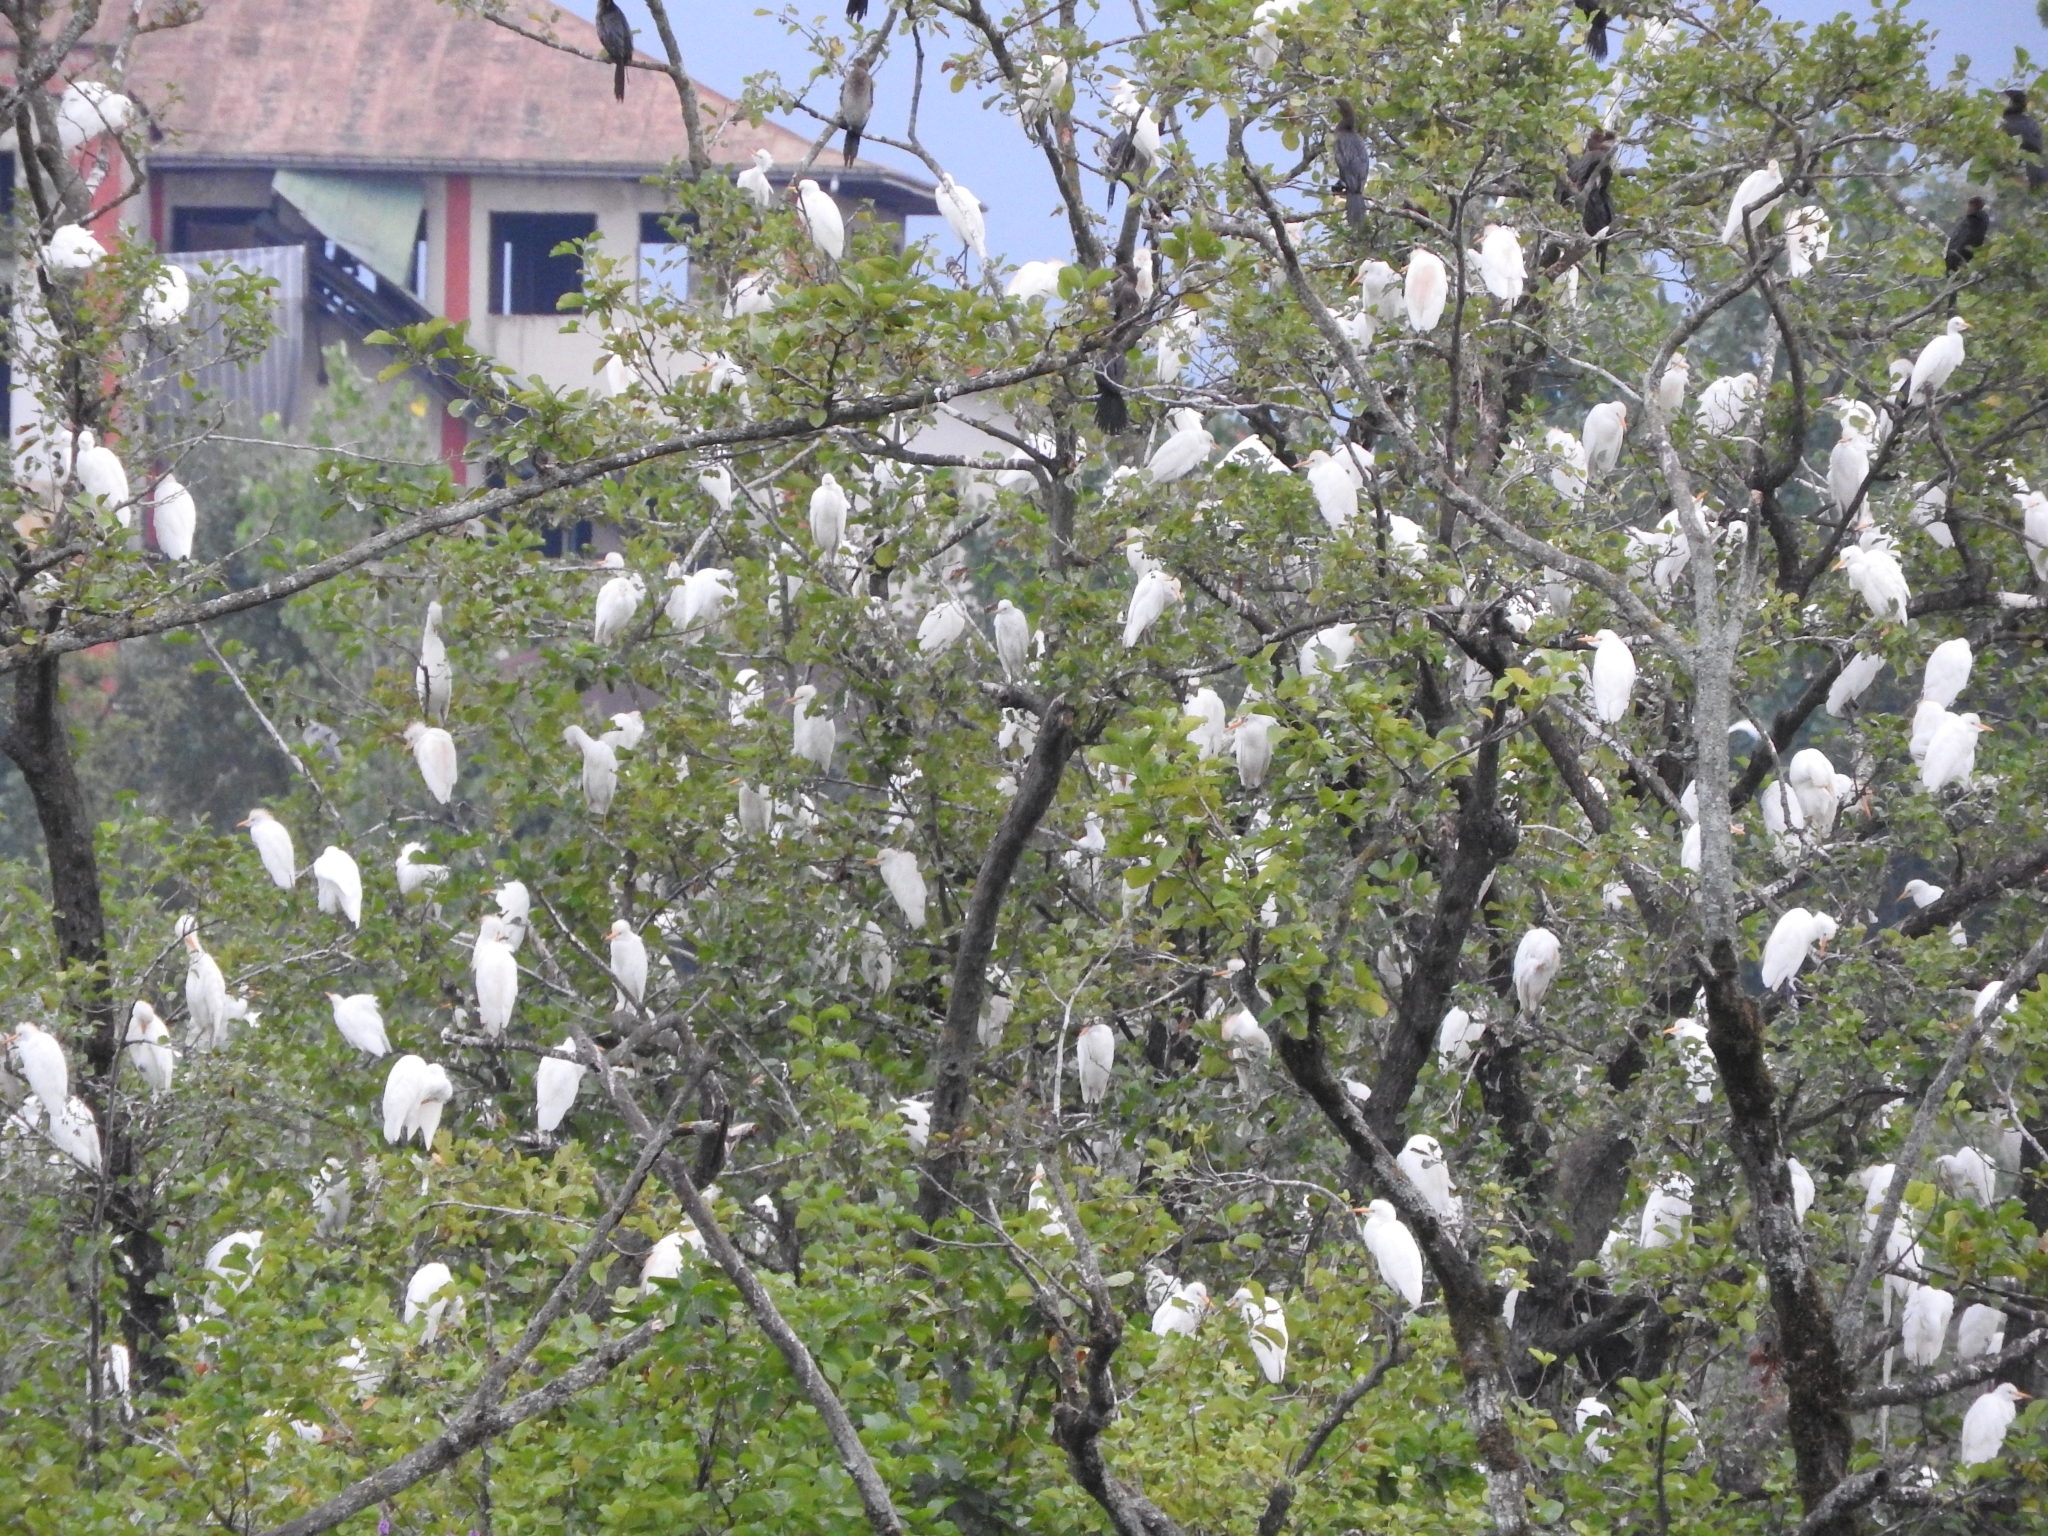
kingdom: Animalia
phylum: Chordata
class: Aves
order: Pelecaniformes
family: Ardeidae
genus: Bubulcus
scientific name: Bubulcus ibis
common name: Cattle egret
